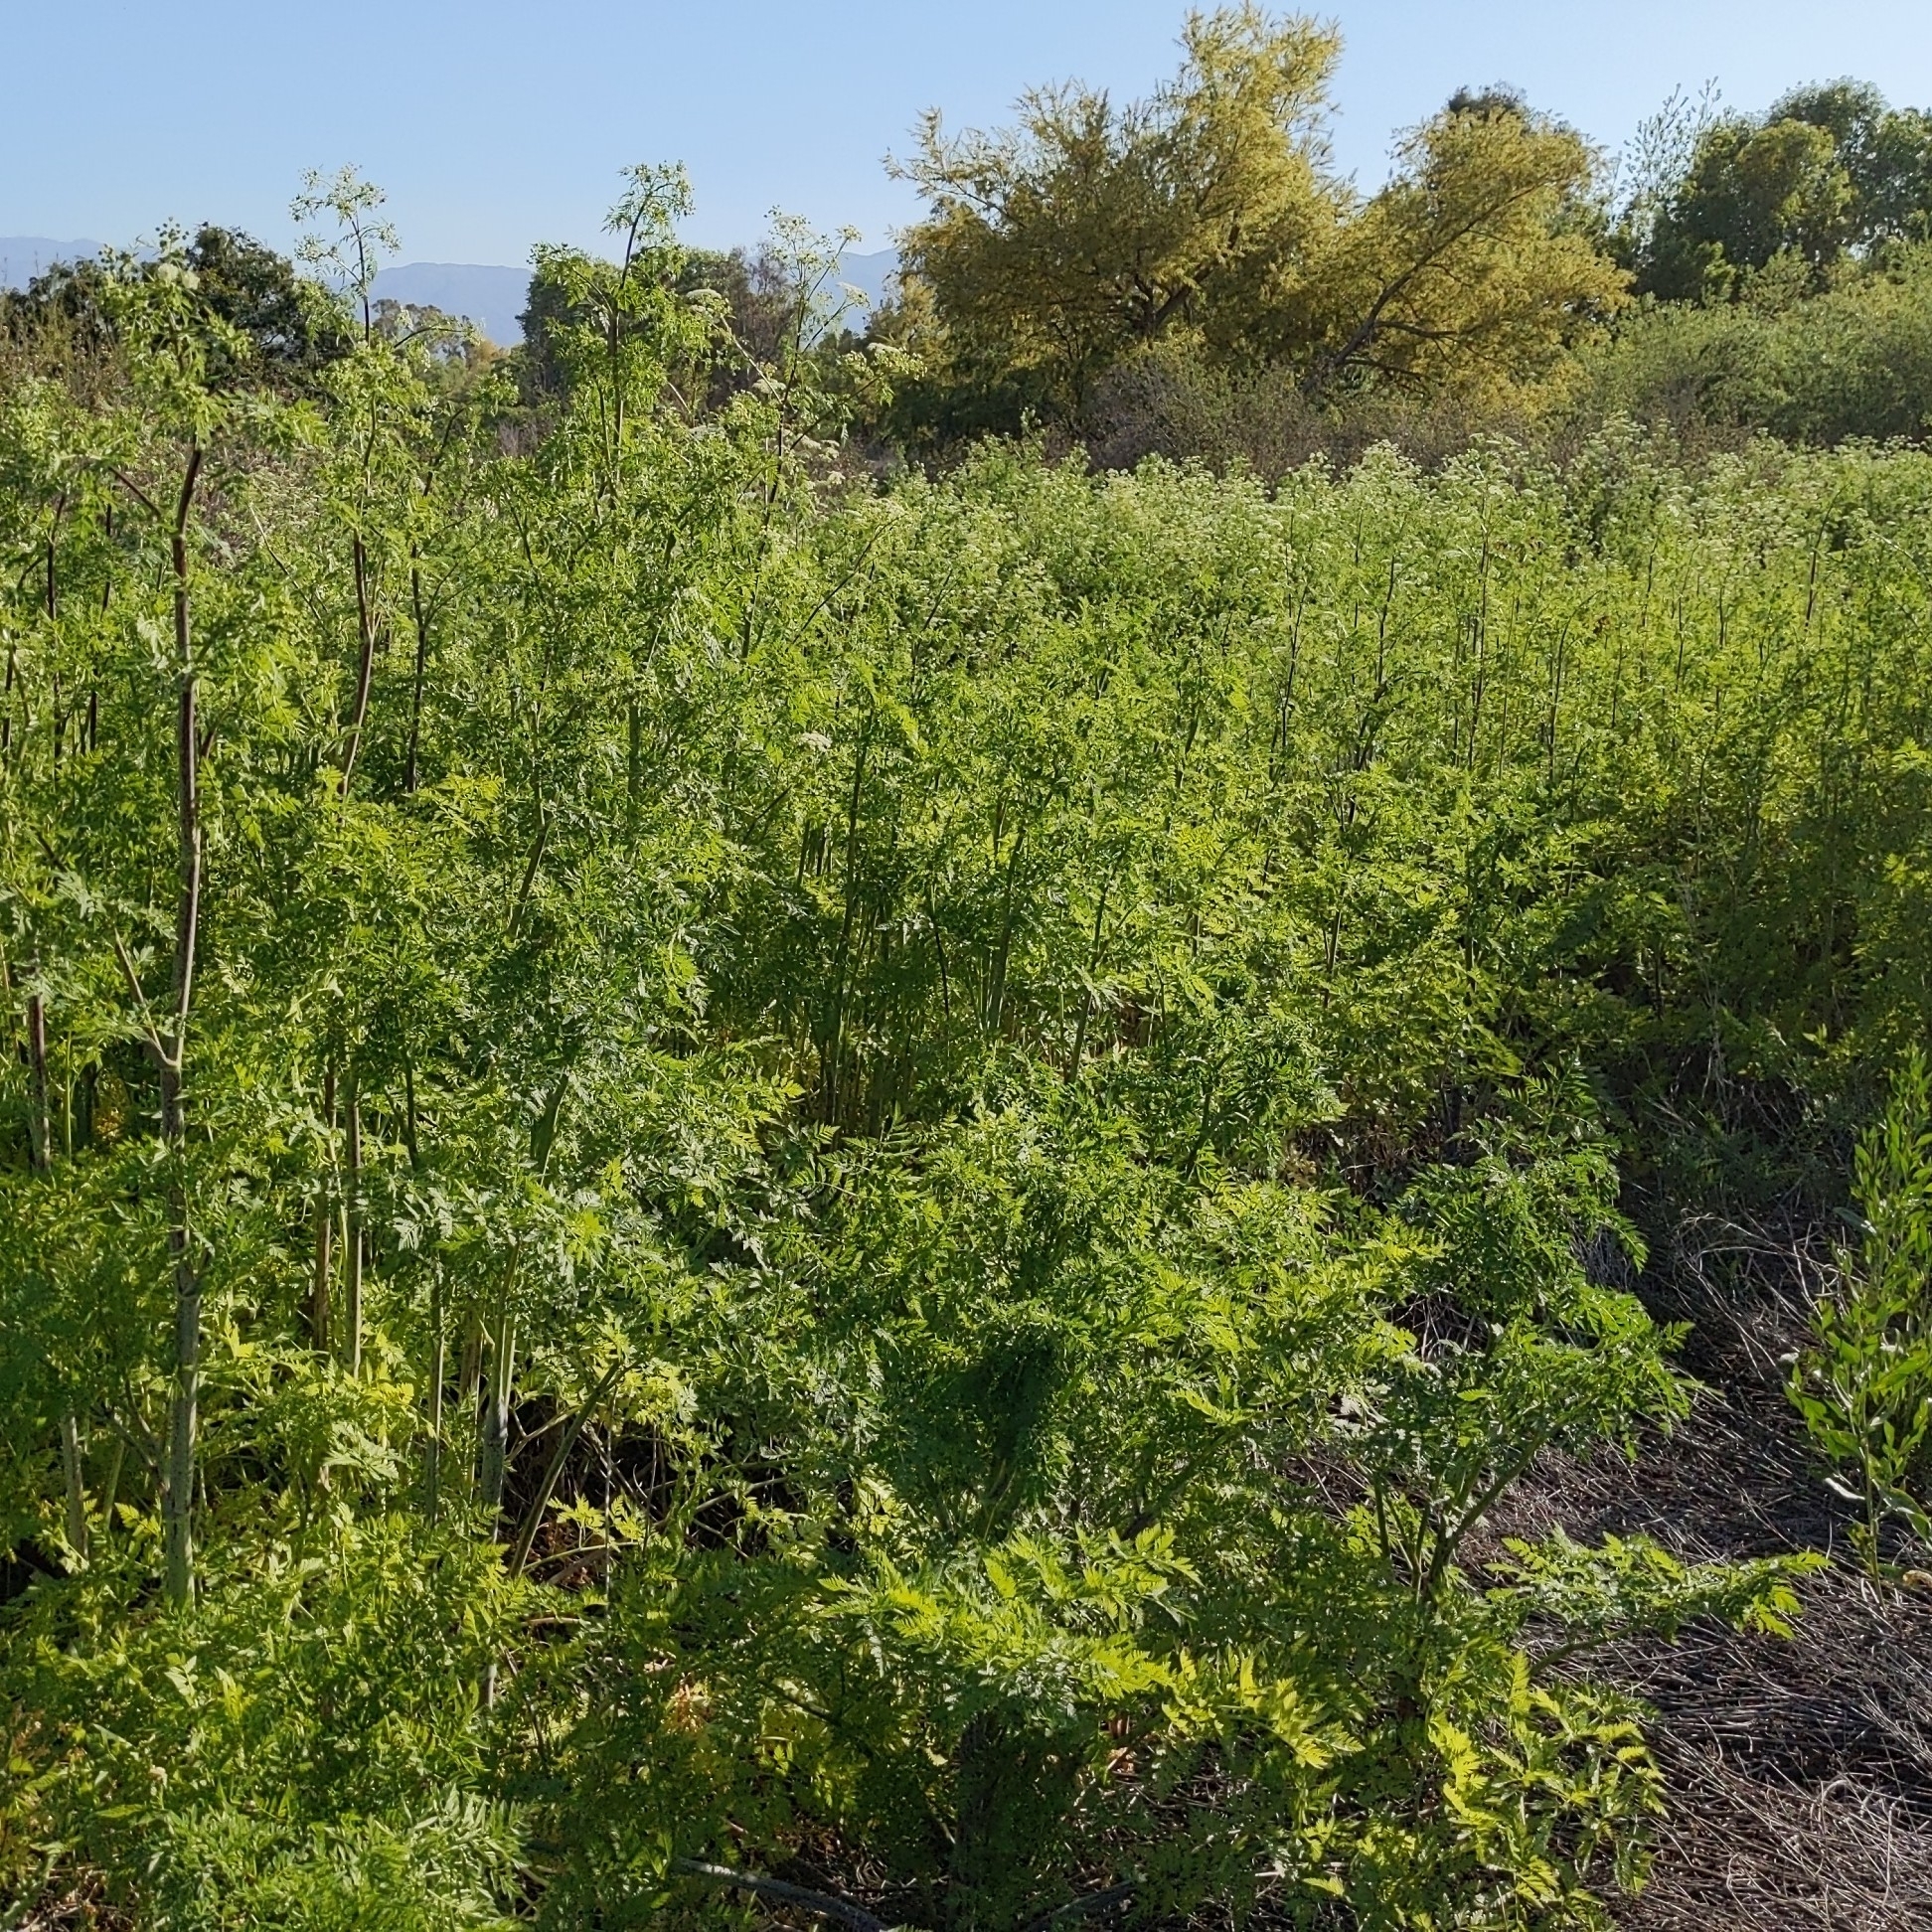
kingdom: Plantae
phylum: Tracheophyta
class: Magnoliopsida
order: Apiales
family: Apiaceae
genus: Conium
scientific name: Conium maculatum
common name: Hemlock
